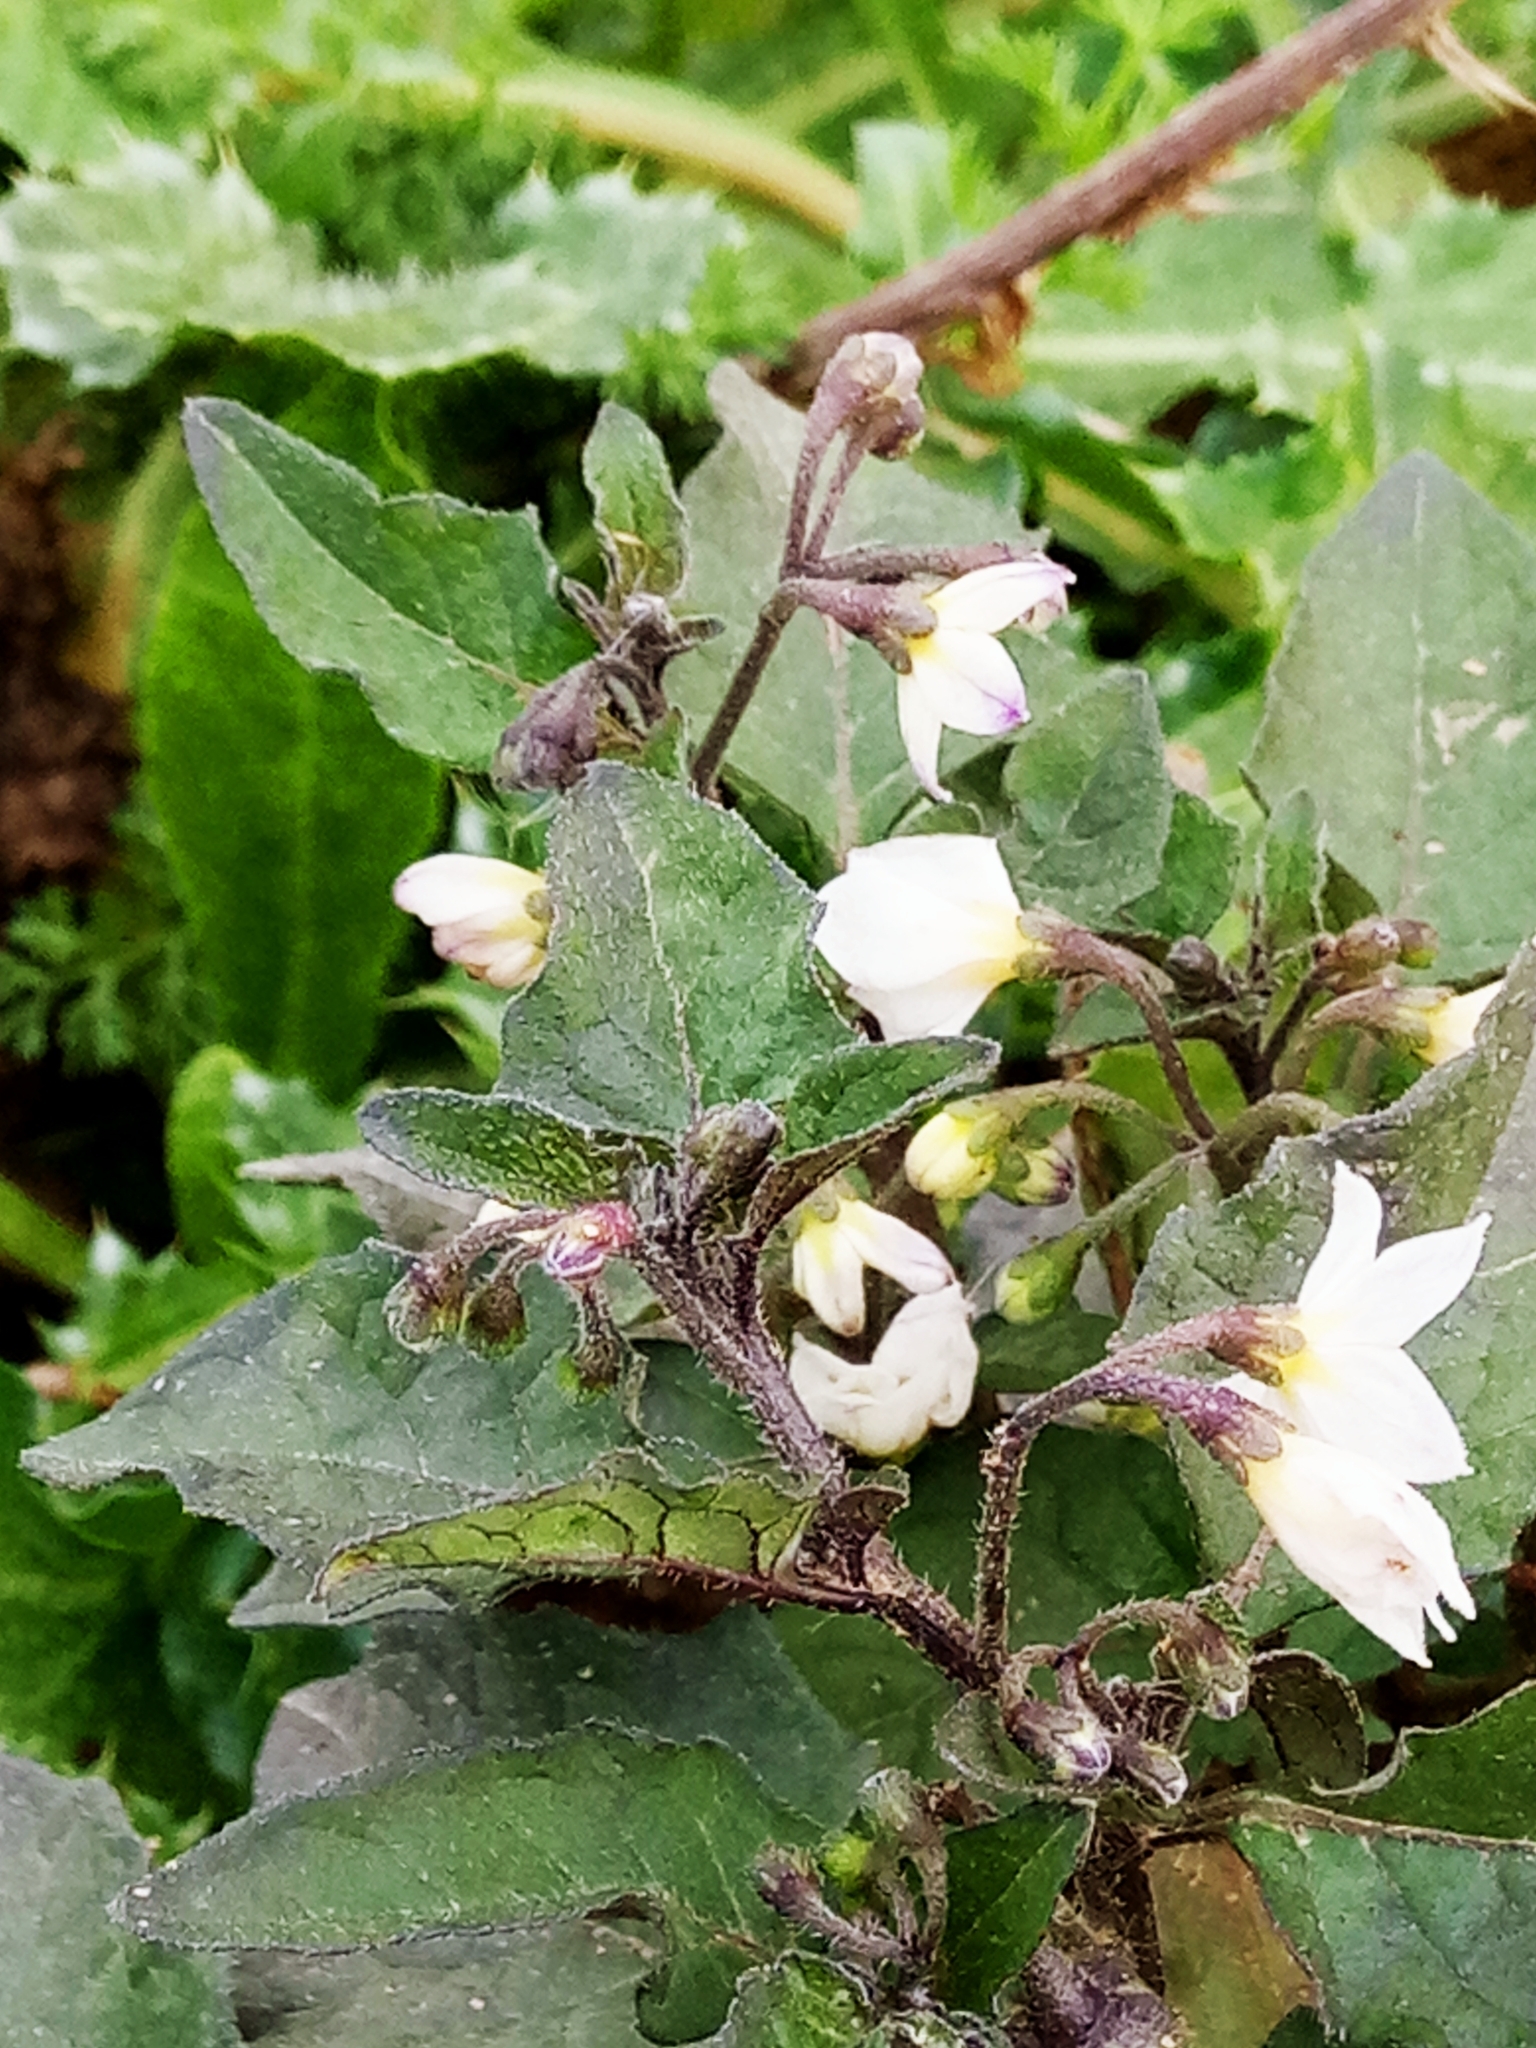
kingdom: Plantae
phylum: Tracheophyta
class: Magnoliopsida
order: Solanales
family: Solanaceae
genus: Solanum
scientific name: Solanum nigrum
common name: Black nightshade
